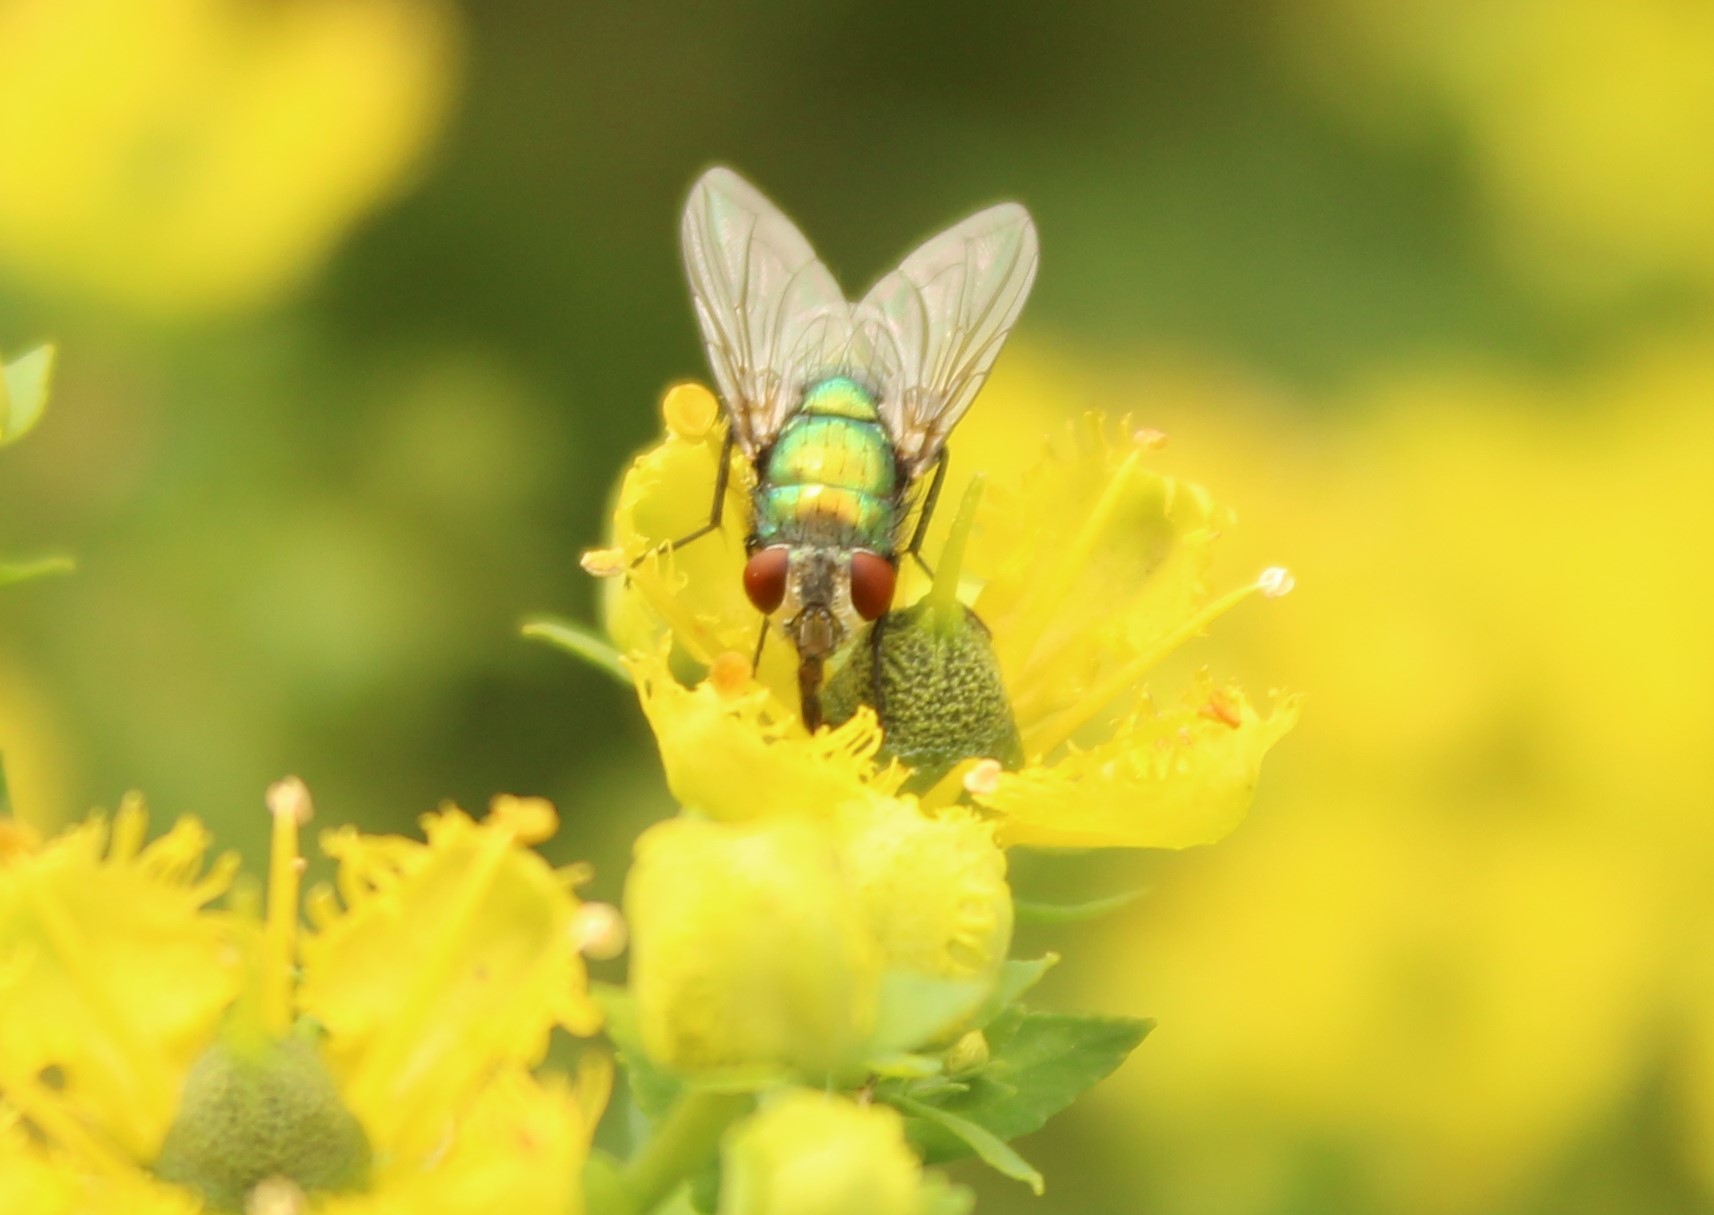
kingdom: Animalia
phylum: Arthropoda
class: Insecta
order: Diptera
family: Calliphoridae
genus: Lucilia
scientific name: Lucilia sericata
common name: Blow fly
